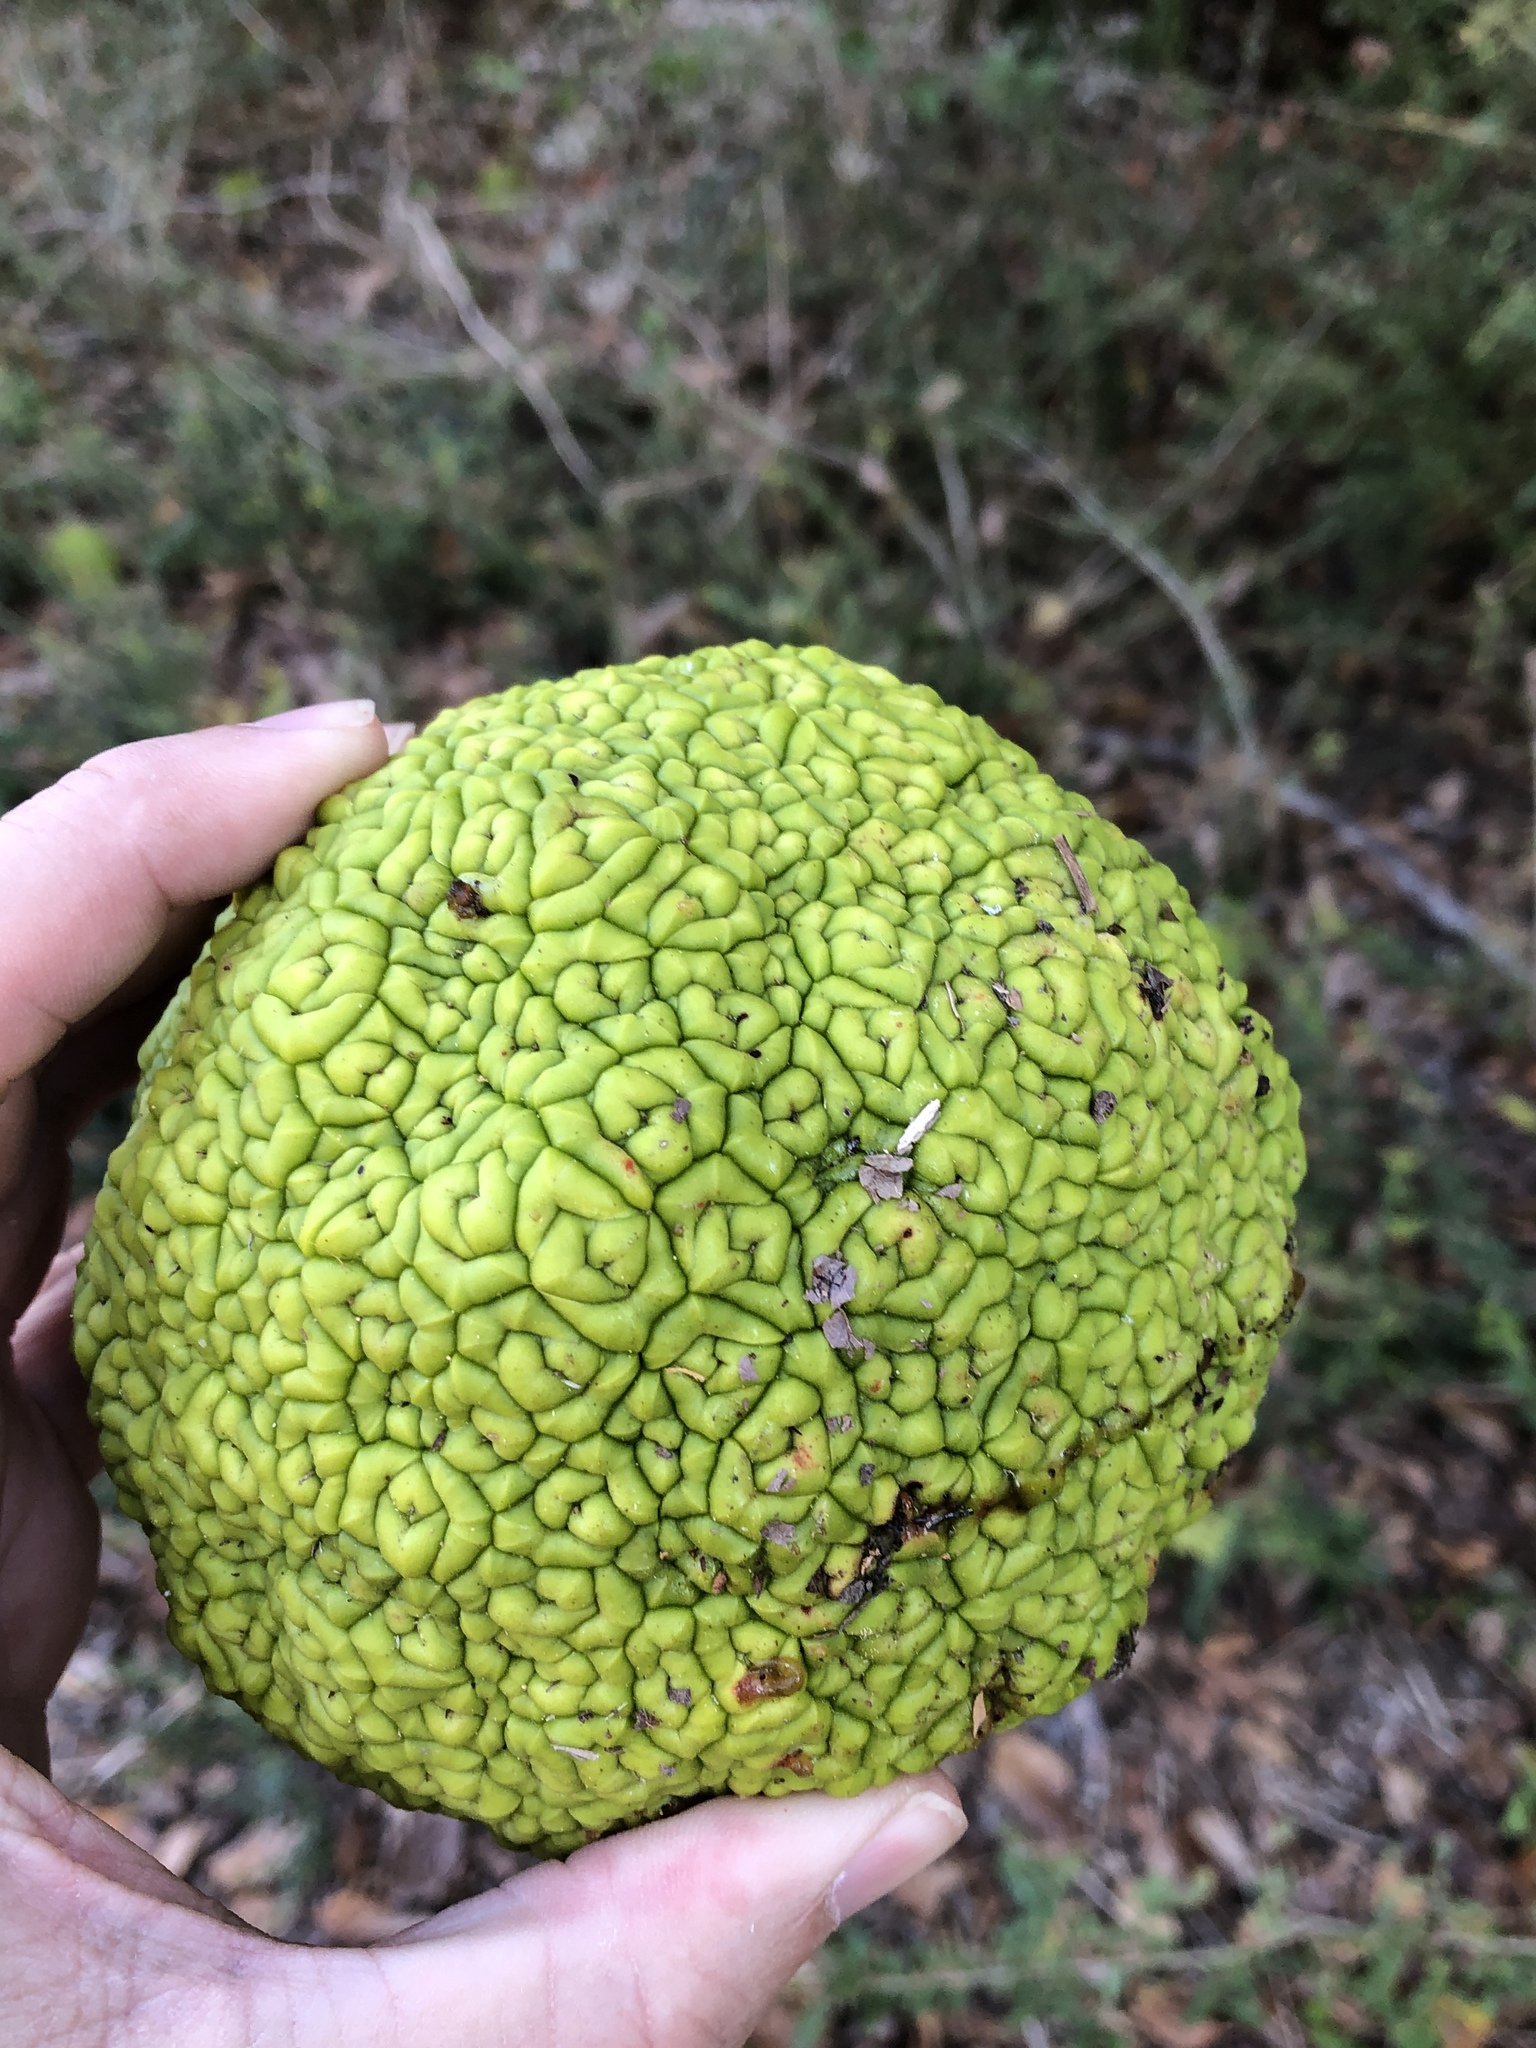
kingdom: Plantae
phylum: Tracheophyta
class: Magnoliopsida
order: Rosales
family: Moraceae
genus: Maclura
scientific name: Maclura pomifera
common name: Osage-orange
